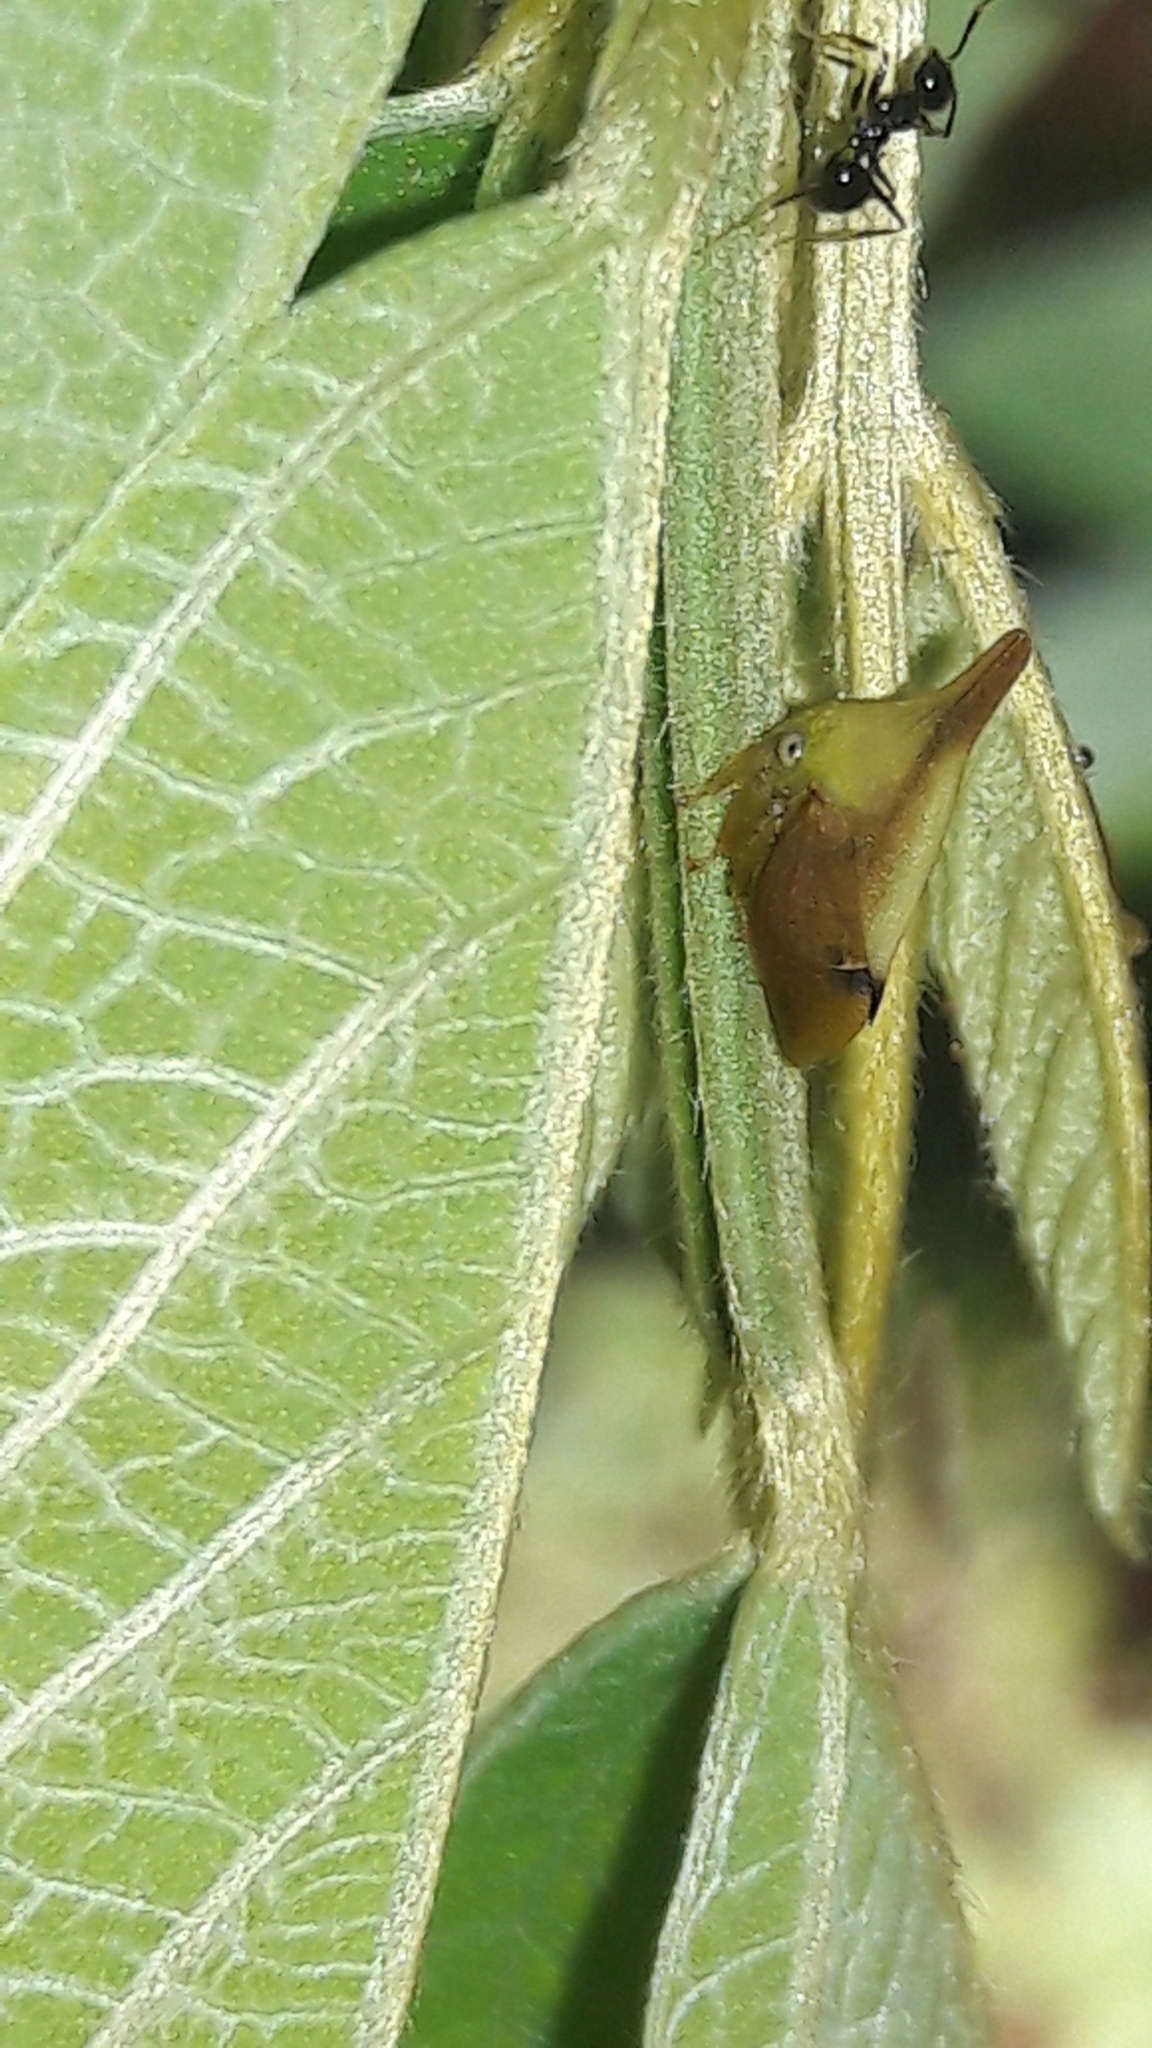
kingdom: Animalia
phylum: Arthropoda
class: Insecta
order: Hemiptera
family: Membracidae
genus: Enchenopa
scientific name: Enchenopa concolor
